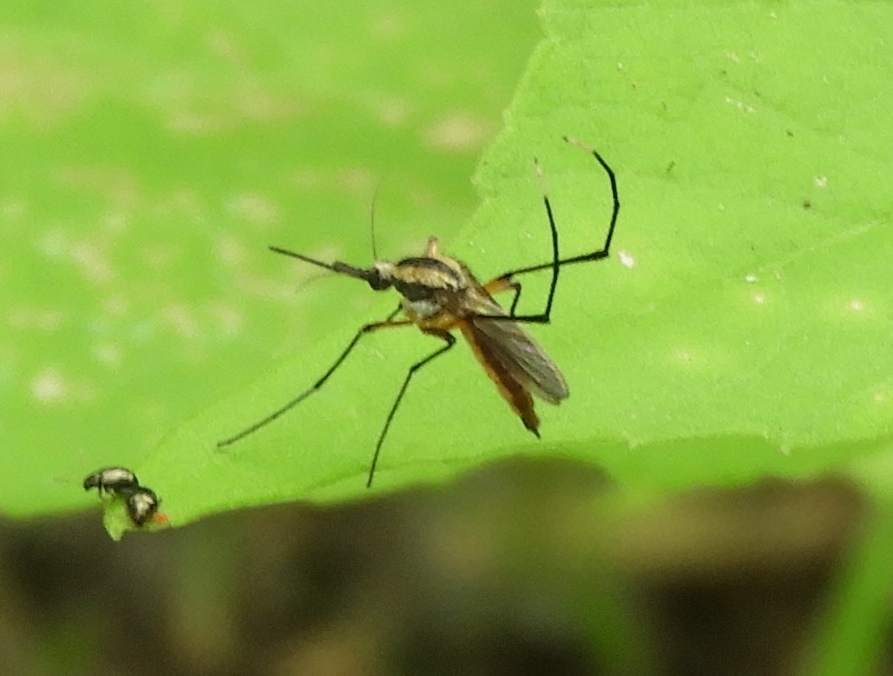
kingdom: Animalia
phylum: Arthropoda
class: Insecta
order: Diptera
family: Culicidae
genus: Psorophora
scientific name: Psorophora
